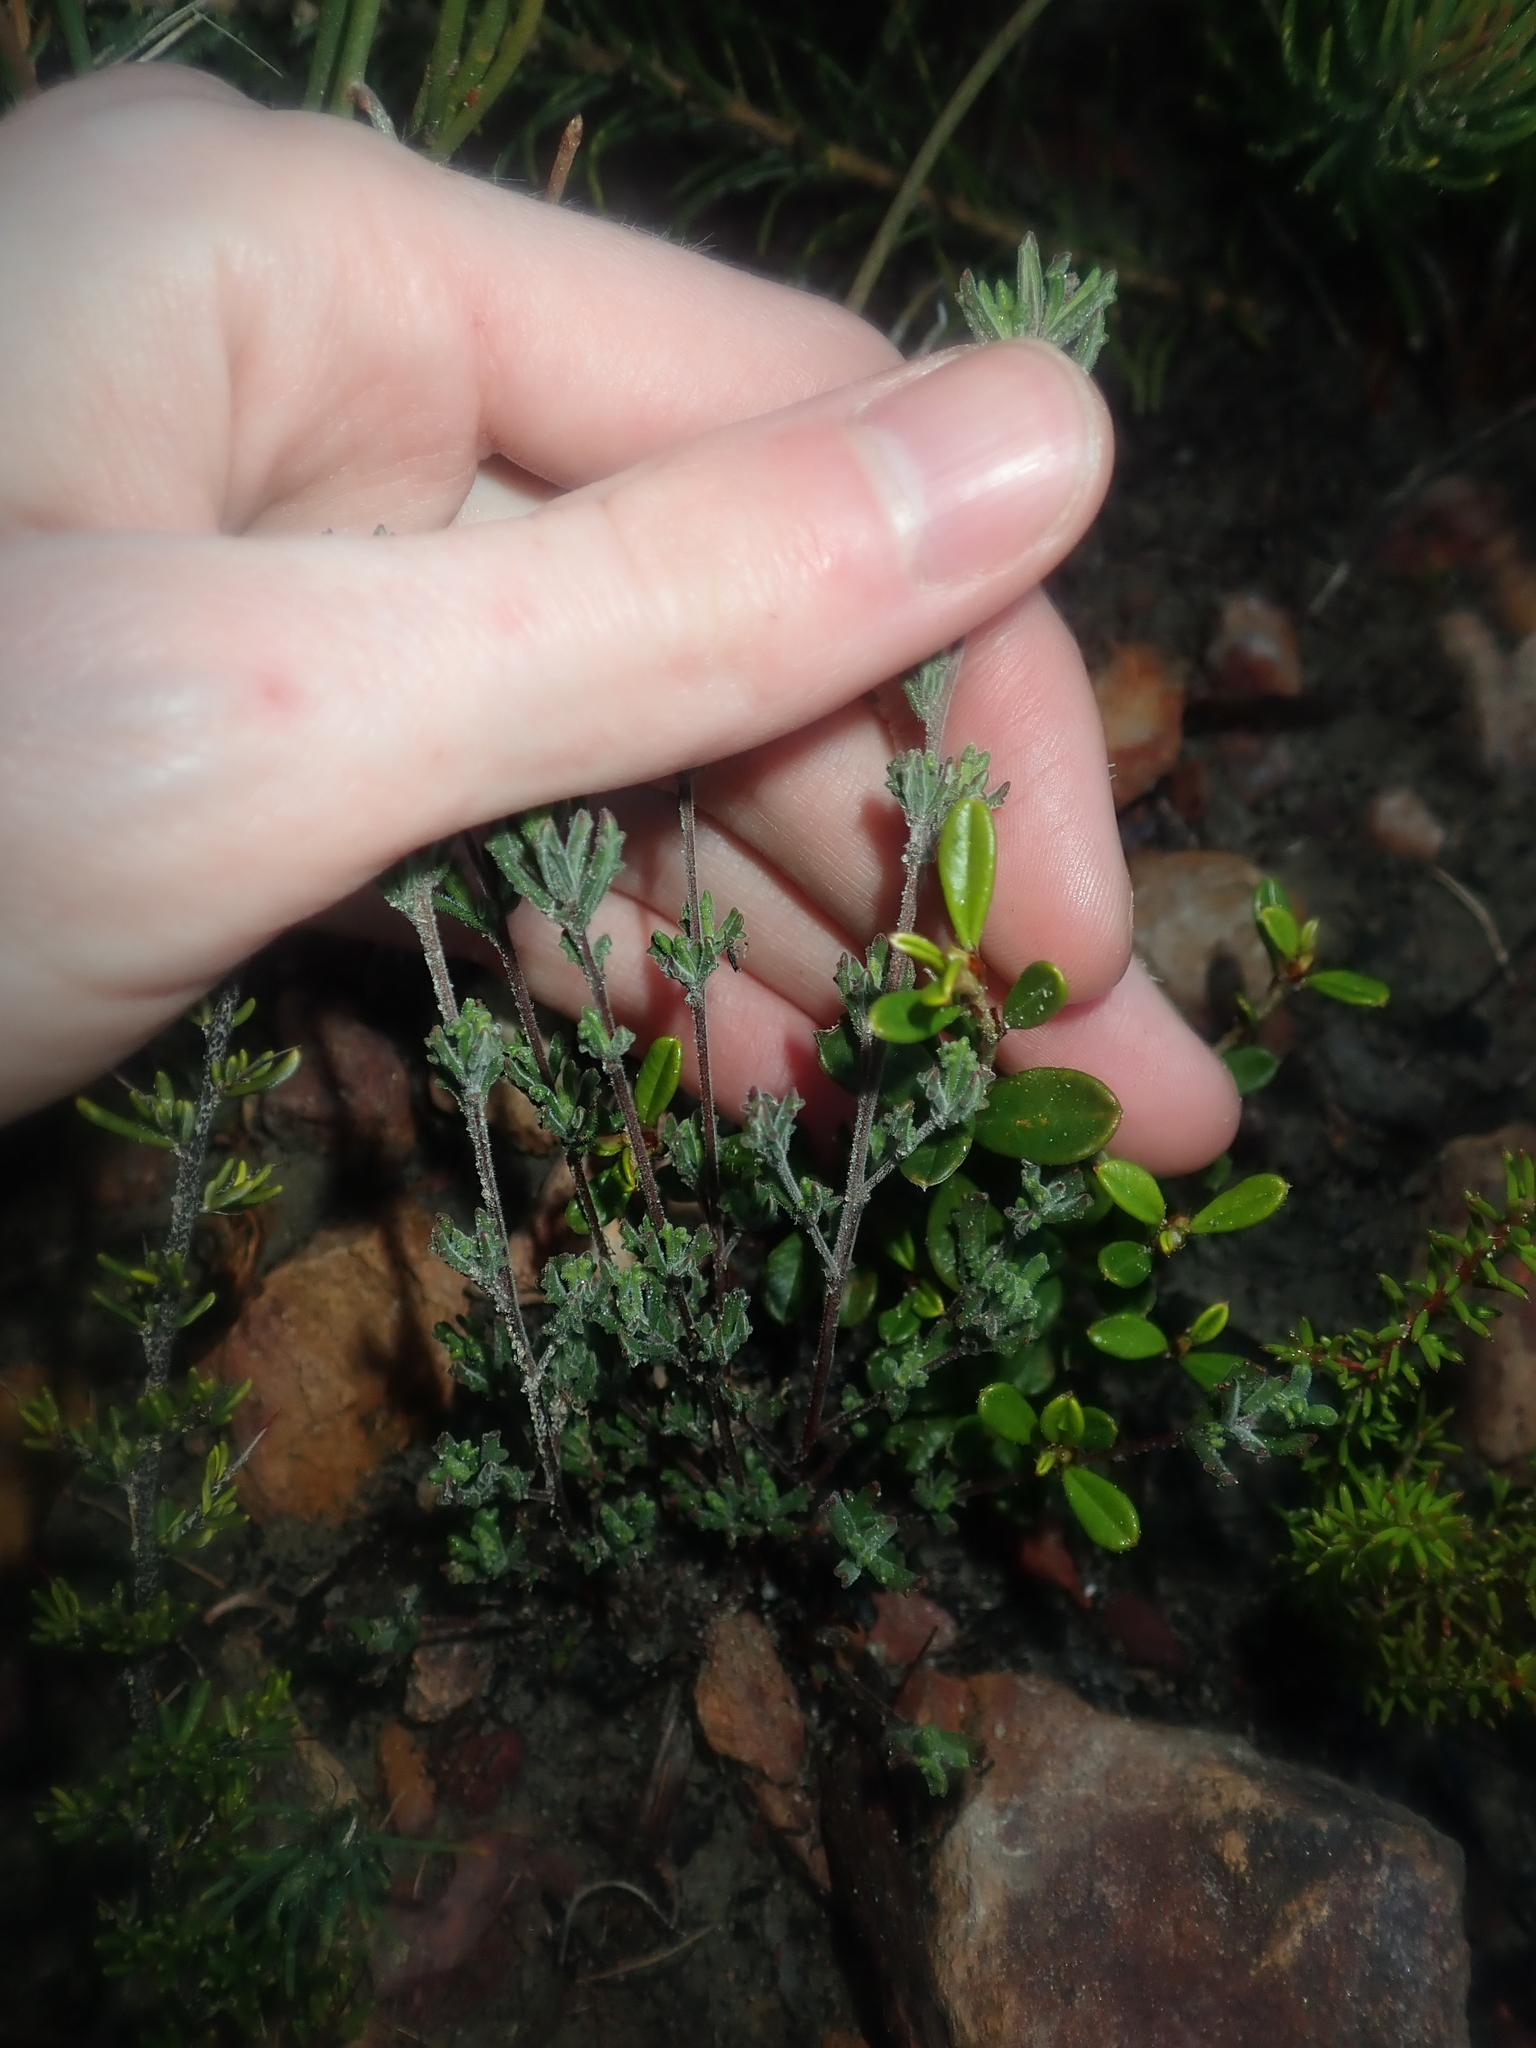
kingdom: Plantae
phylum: Tracheophyta
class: Magnoliopsida
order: Sapindales
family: Sapindaceae
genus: Dodonaea
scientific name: Dodonaea ericoides
